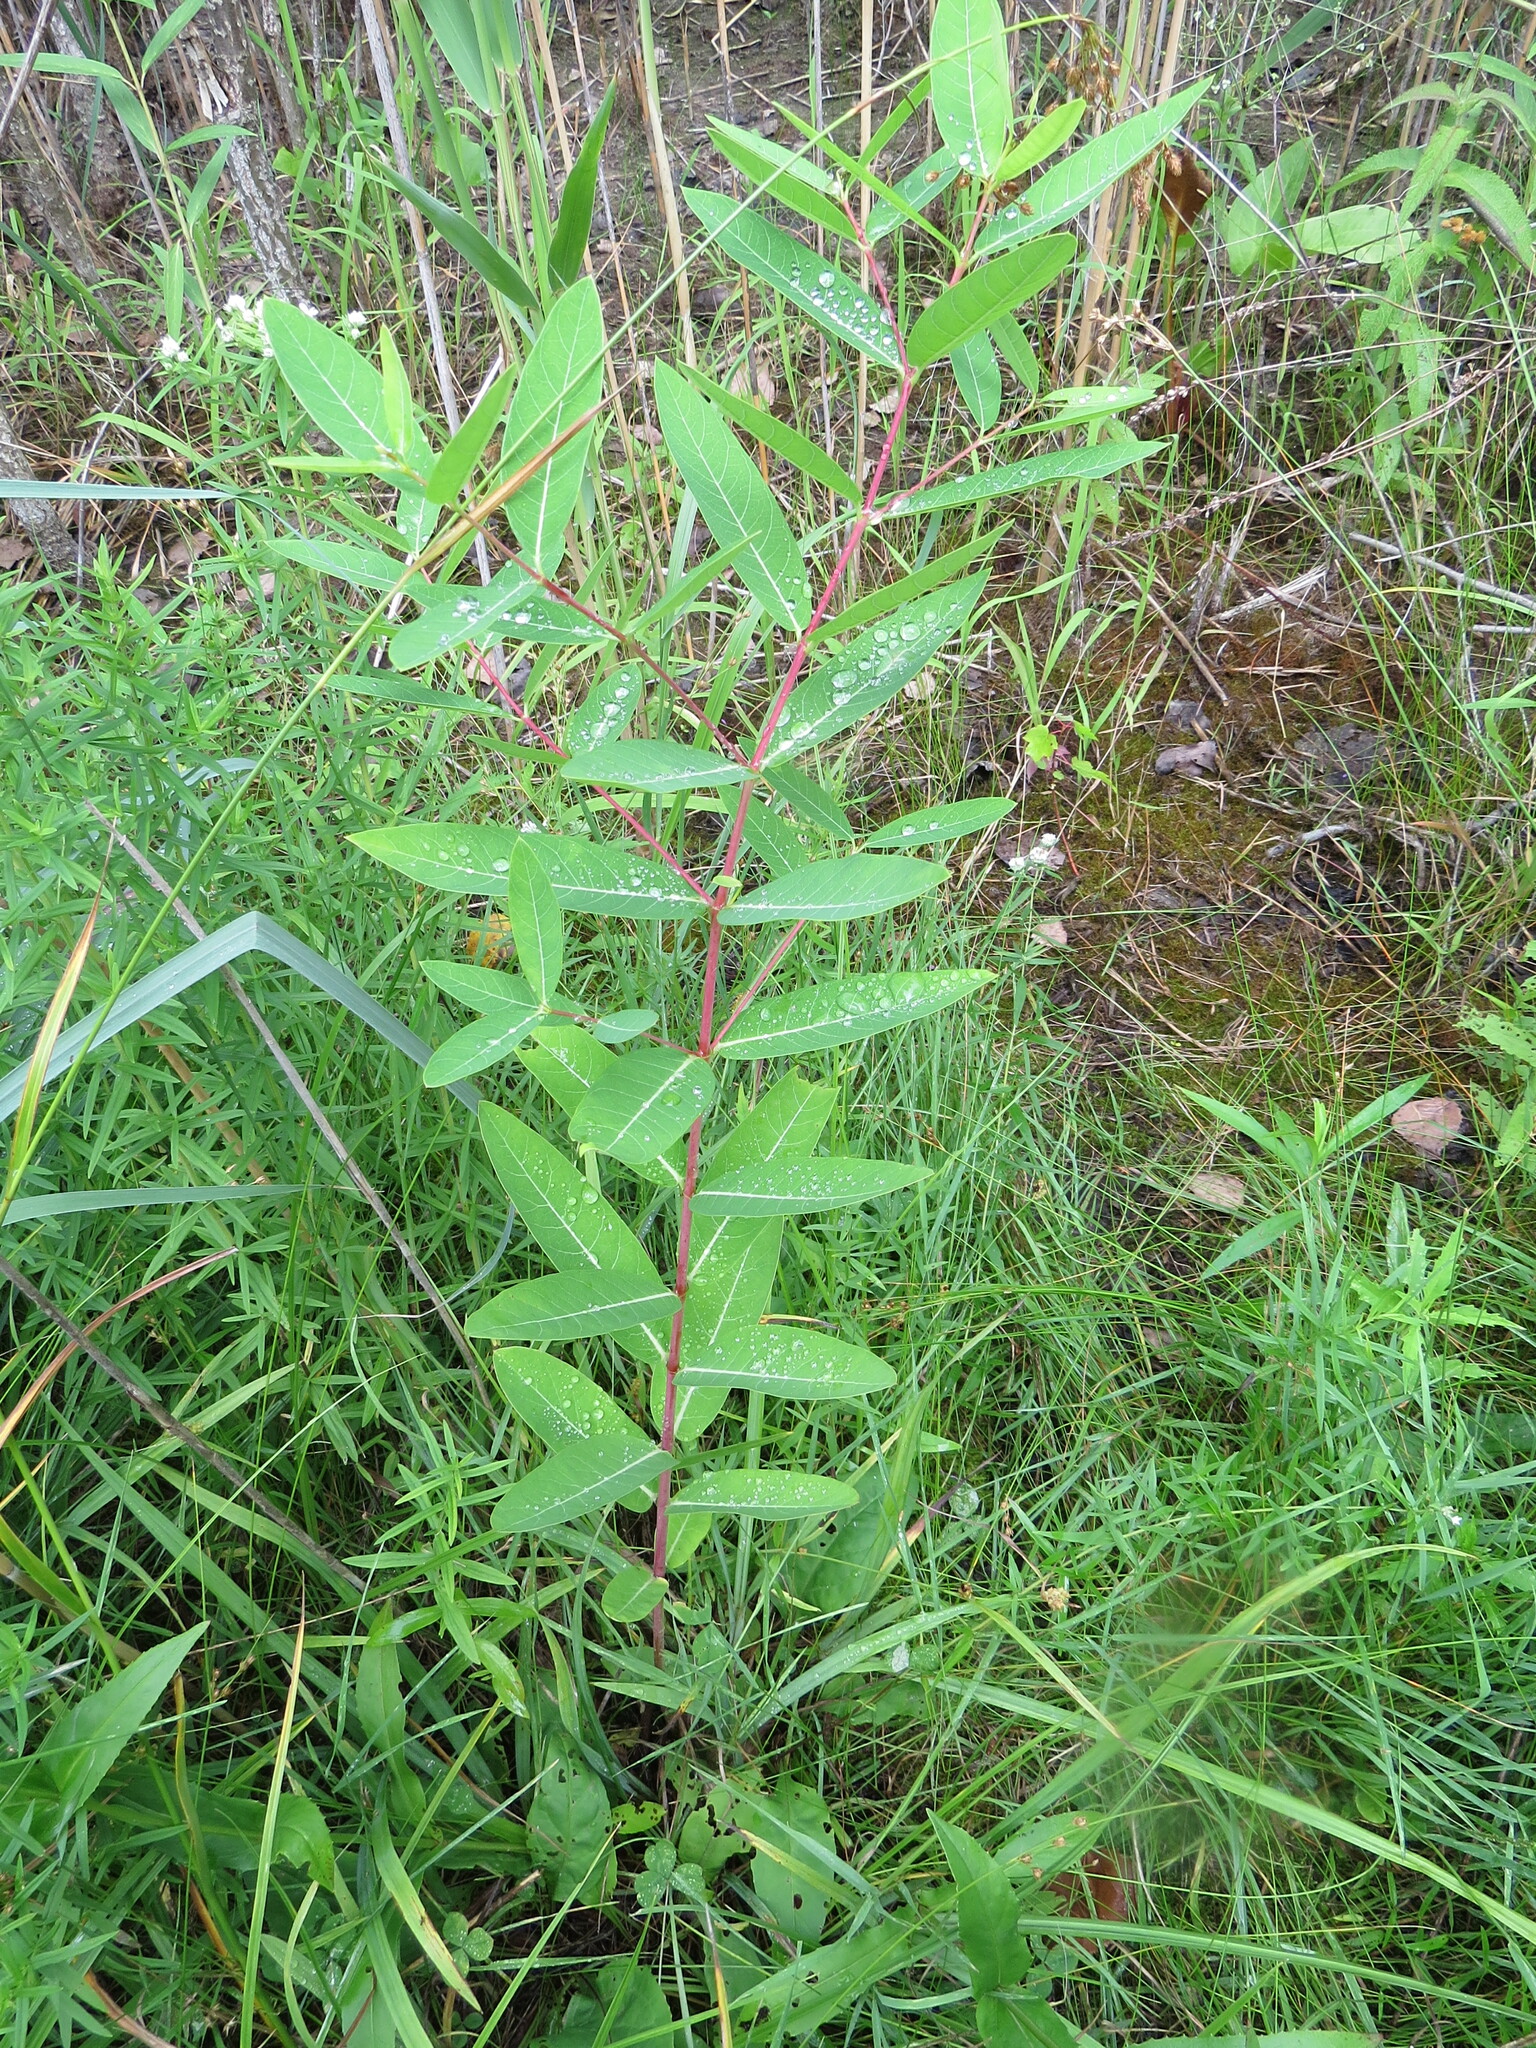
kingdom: Plantae
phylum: Tracheophyta
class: Magnoliopsida
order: Gentianales
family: Apocynaceae
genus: Apocynum
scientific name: Apocynum cannabinum
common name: Hemp dogbane
